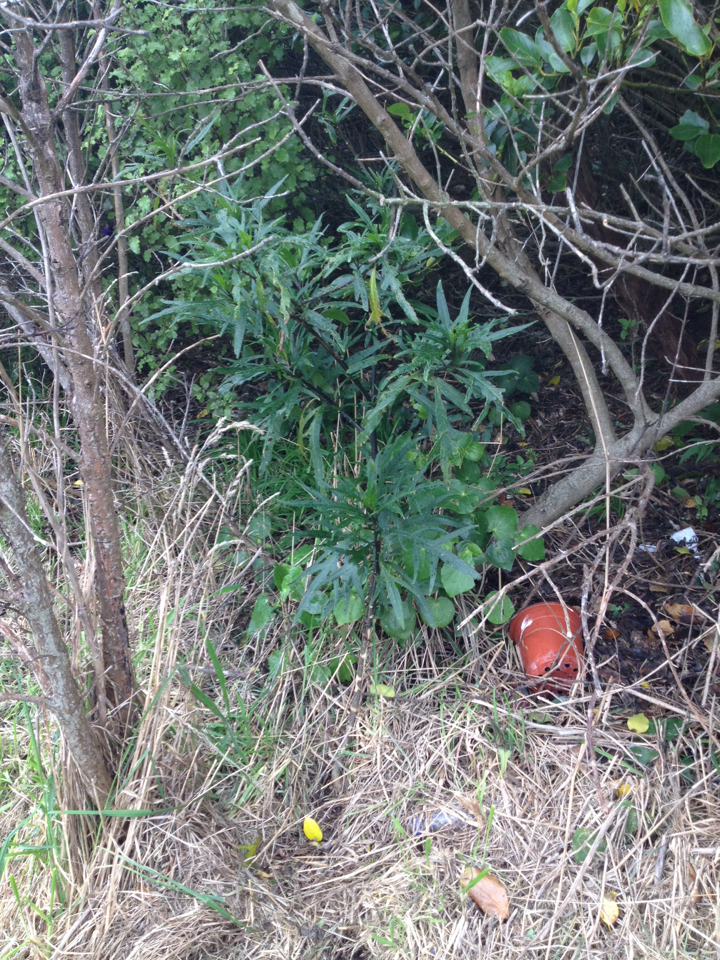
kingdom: Plantae
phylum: Tracheophyta
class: Magnoliopsida
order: Solanales
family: Solanaceae
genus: Solanum
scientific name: Solanum laciniatum
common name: Kangaroo-apple
